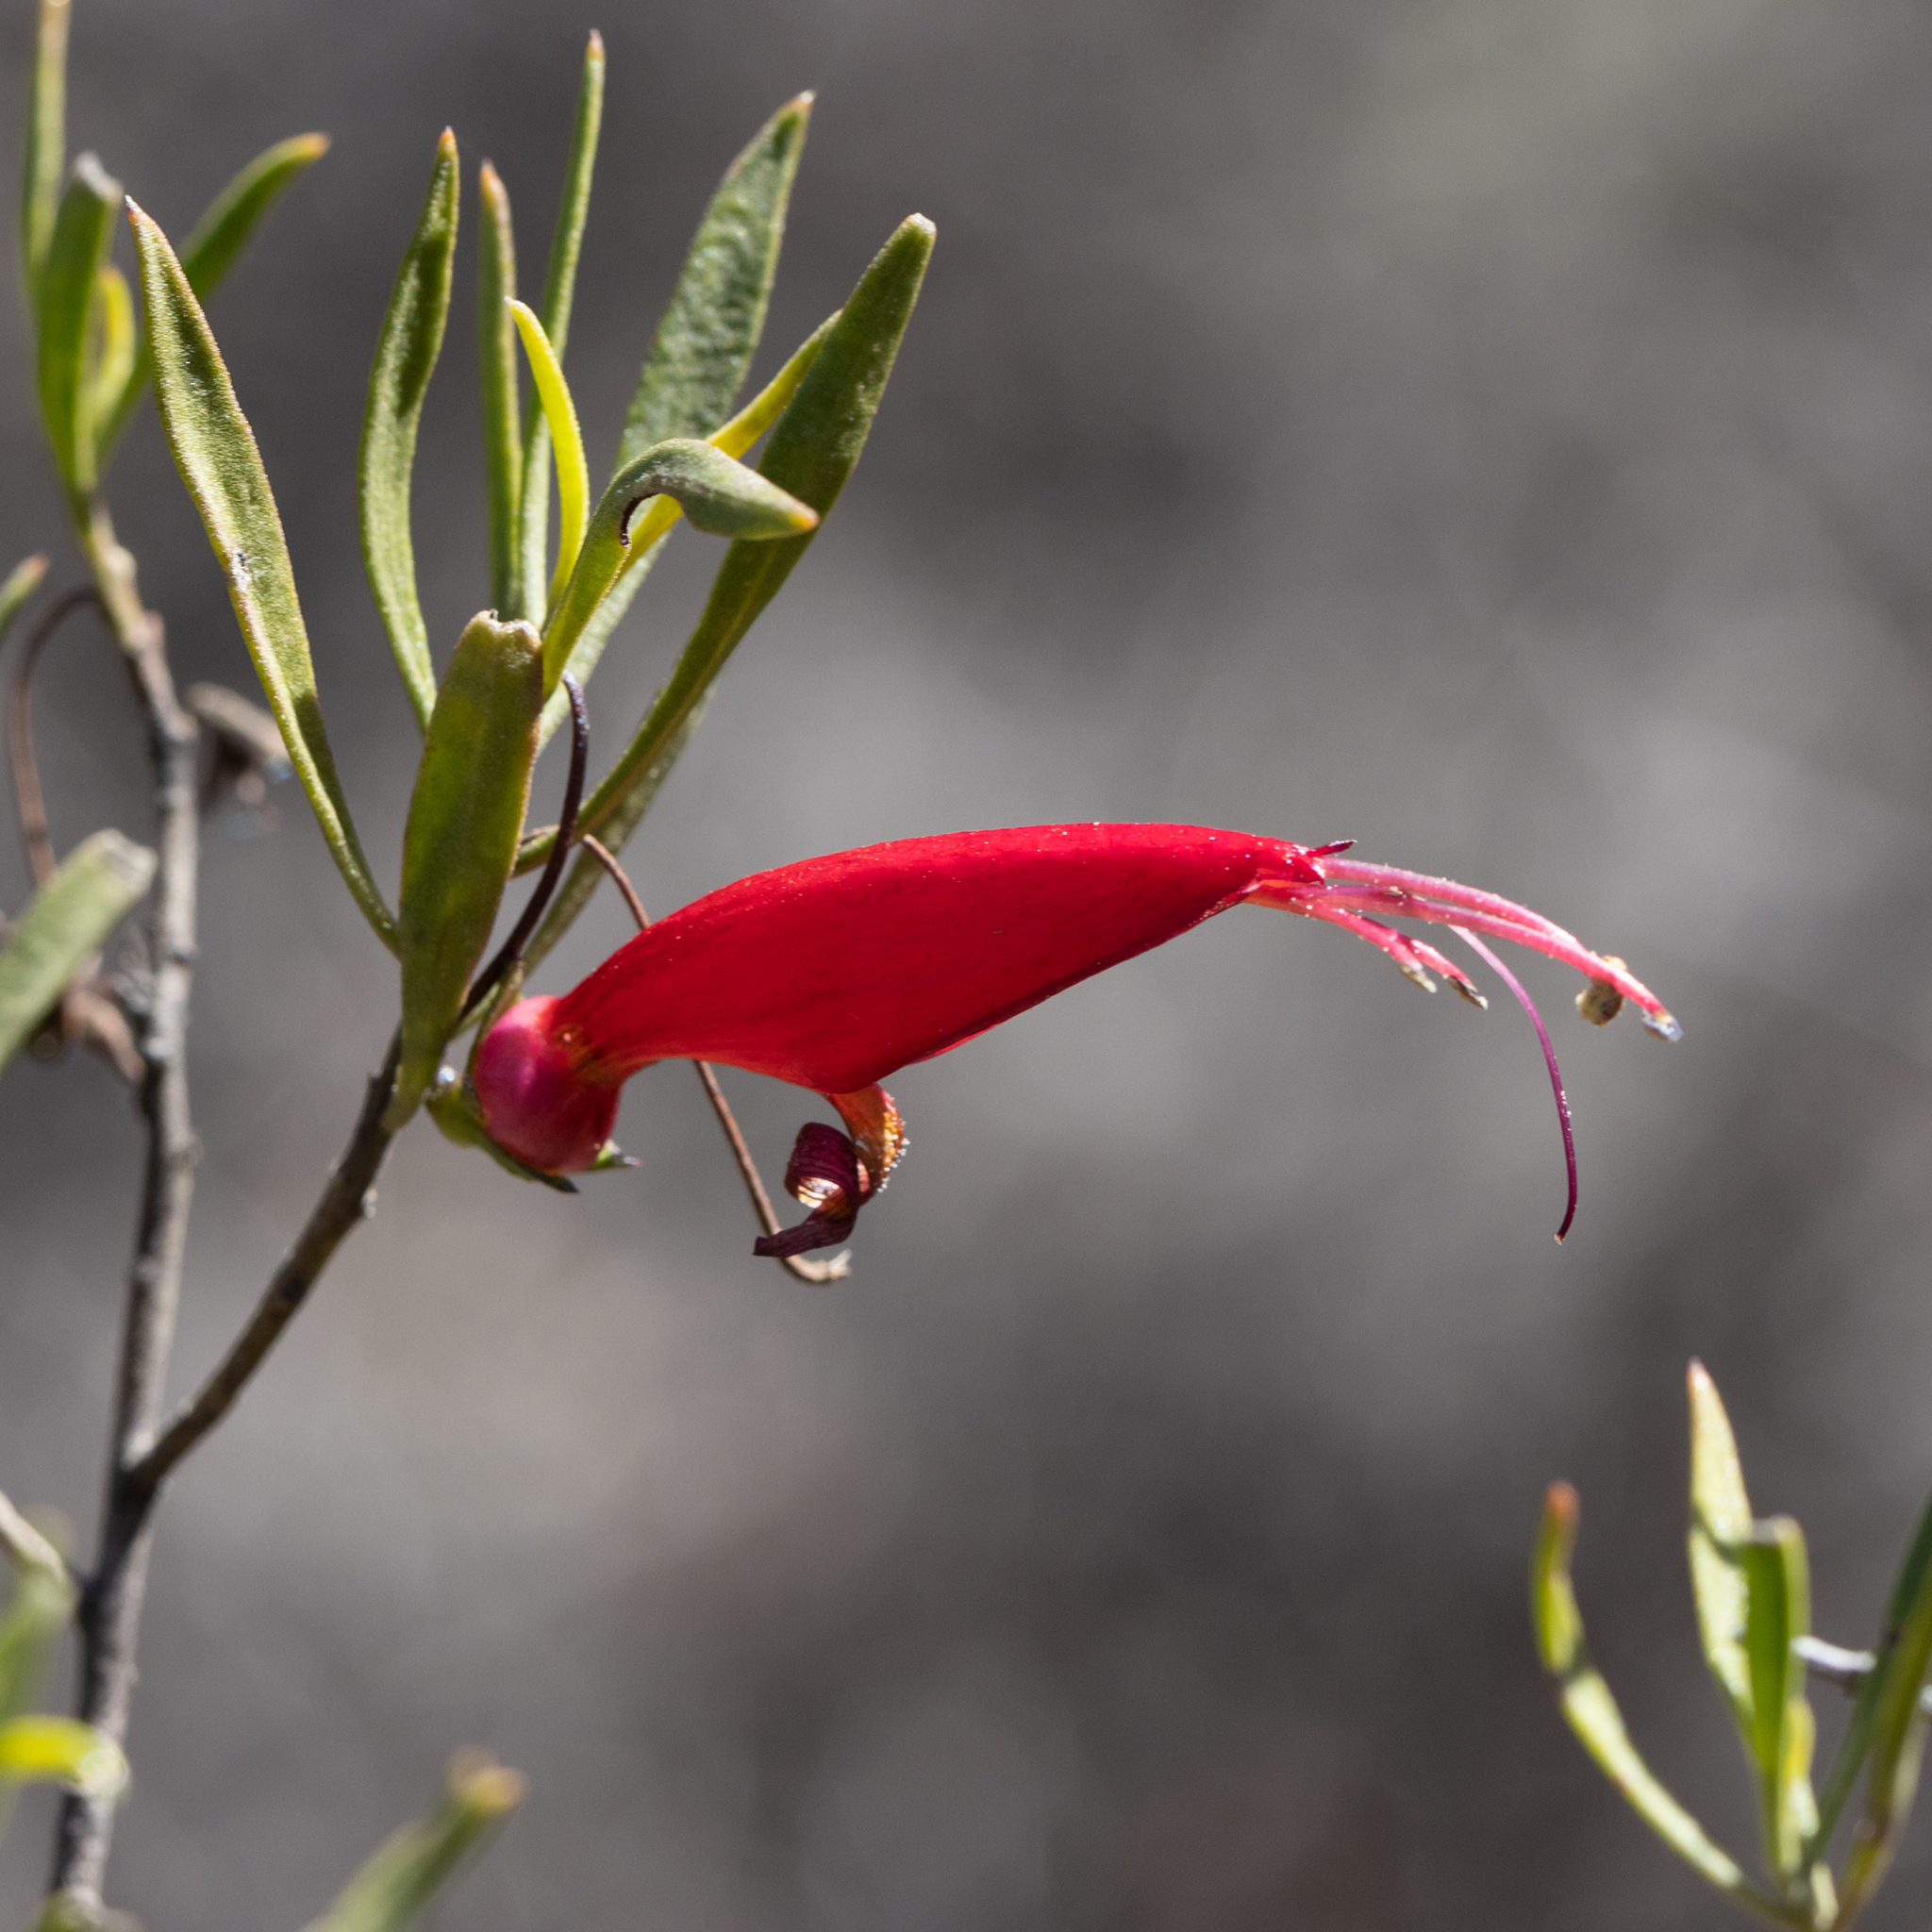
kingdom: Plantae
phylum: Tracheophyta
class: Magnoliopsida
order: Lamiales
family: Scrophulariaceae
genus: Eremophila
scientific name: Eremophila decipiens
